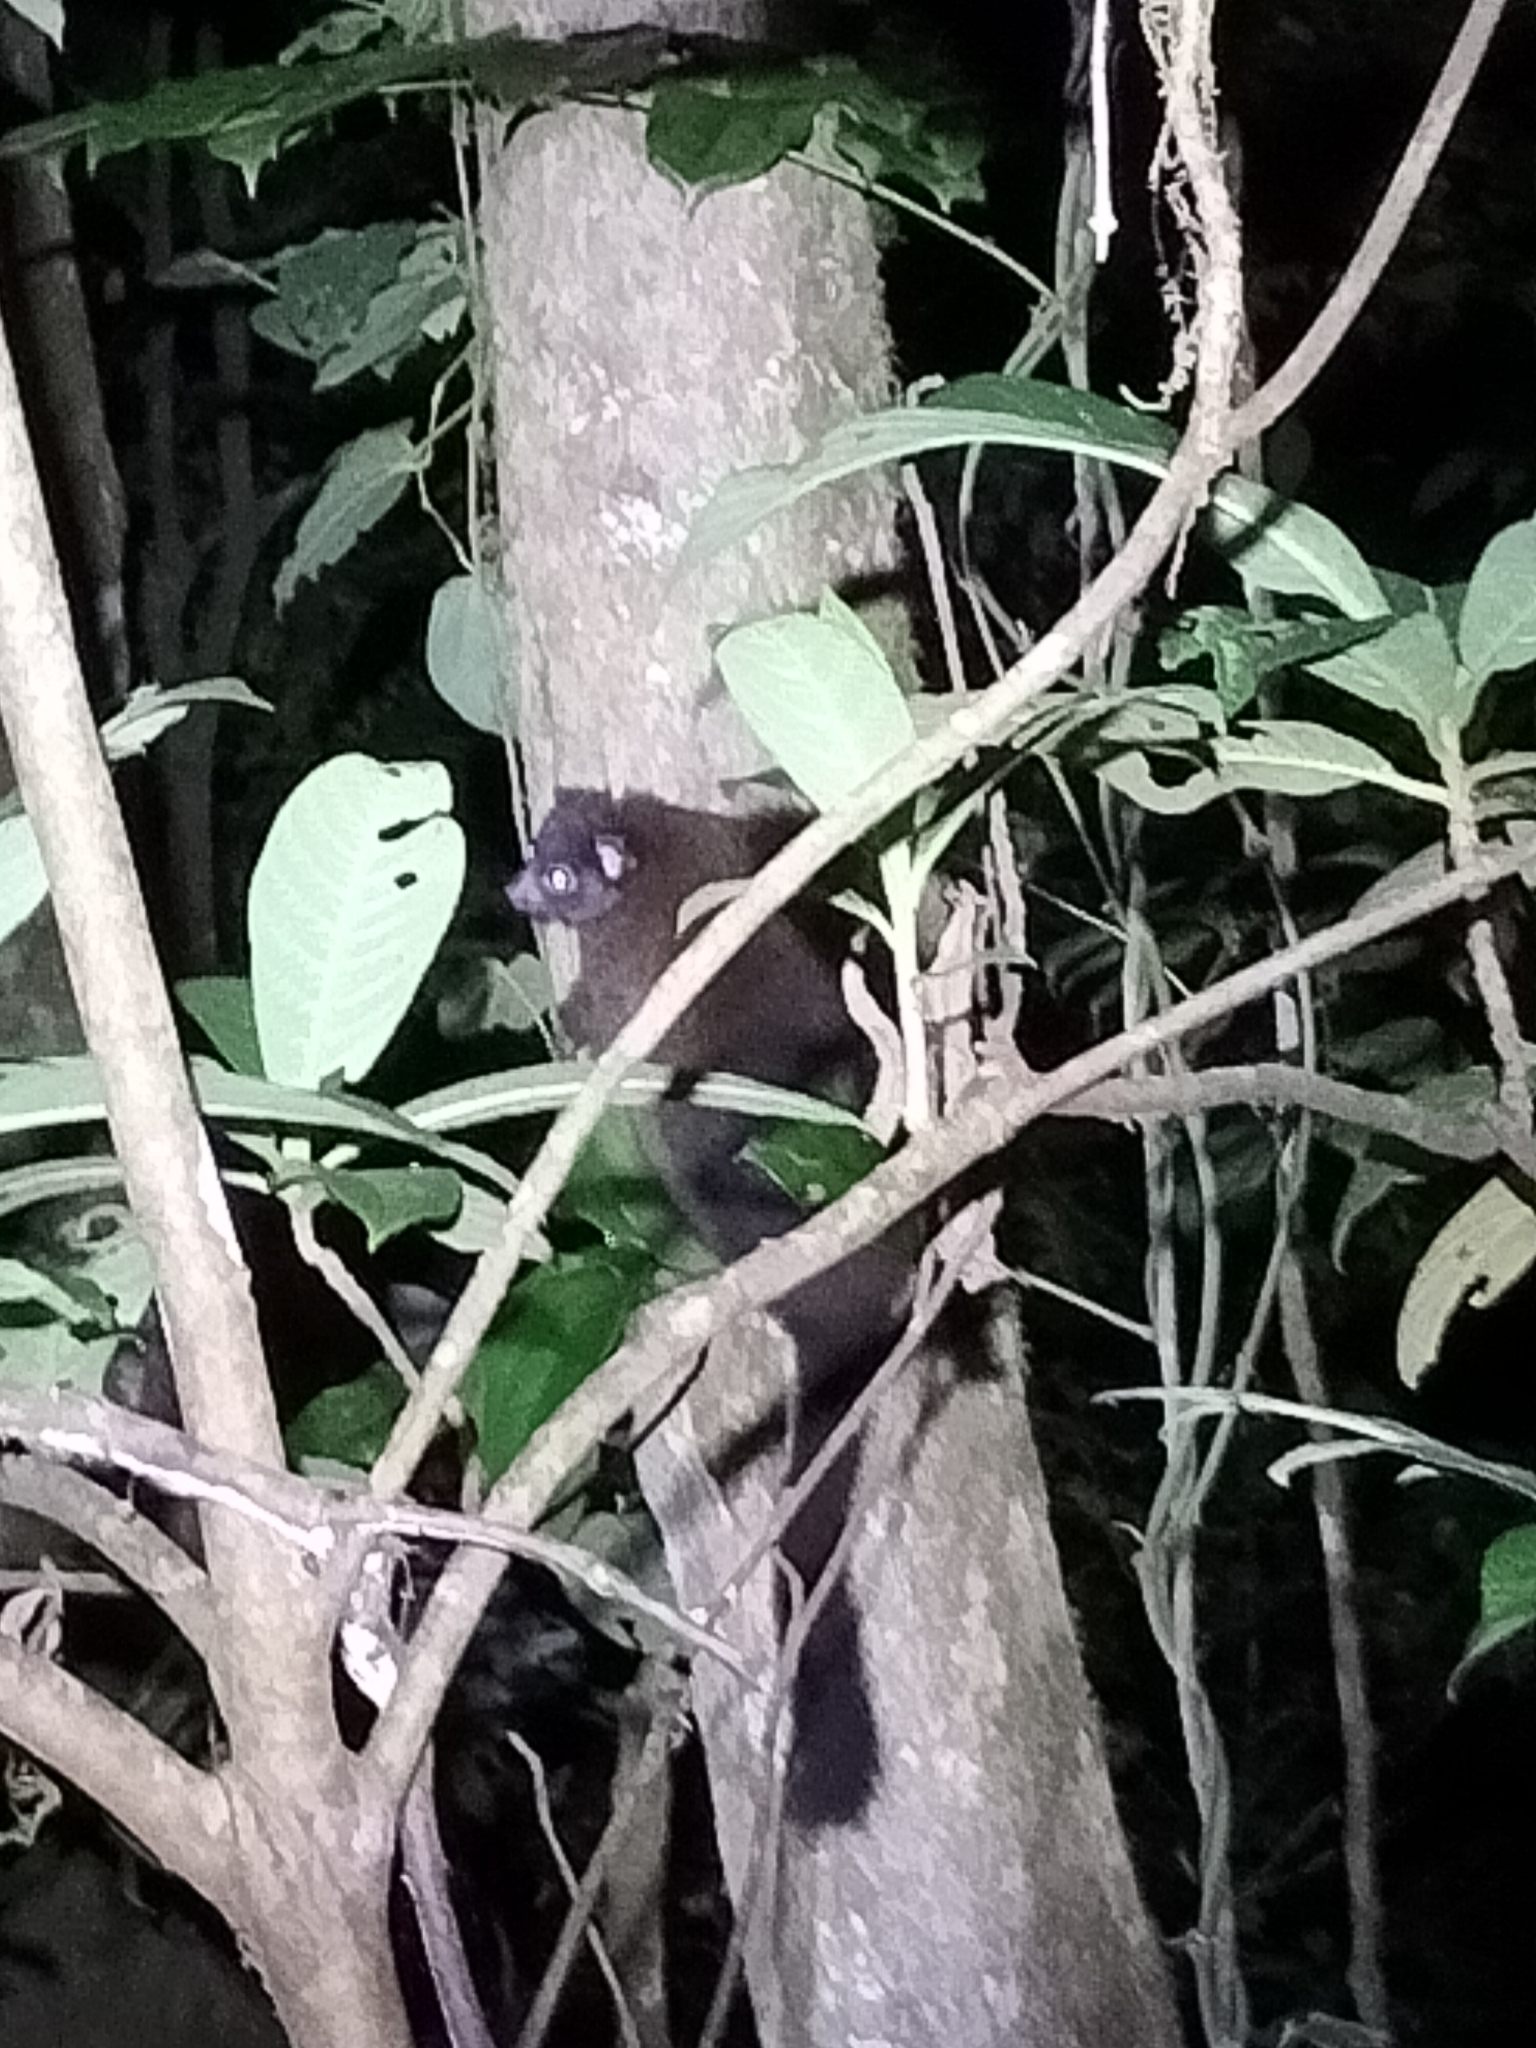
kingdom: Animalia
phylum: Chordata
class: Mammalia
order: Diprotodontia
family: Pseudocheiridae
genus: Hemibelideus
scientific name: Hemibelideus lemuroides
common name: Lemur-like ringtail
